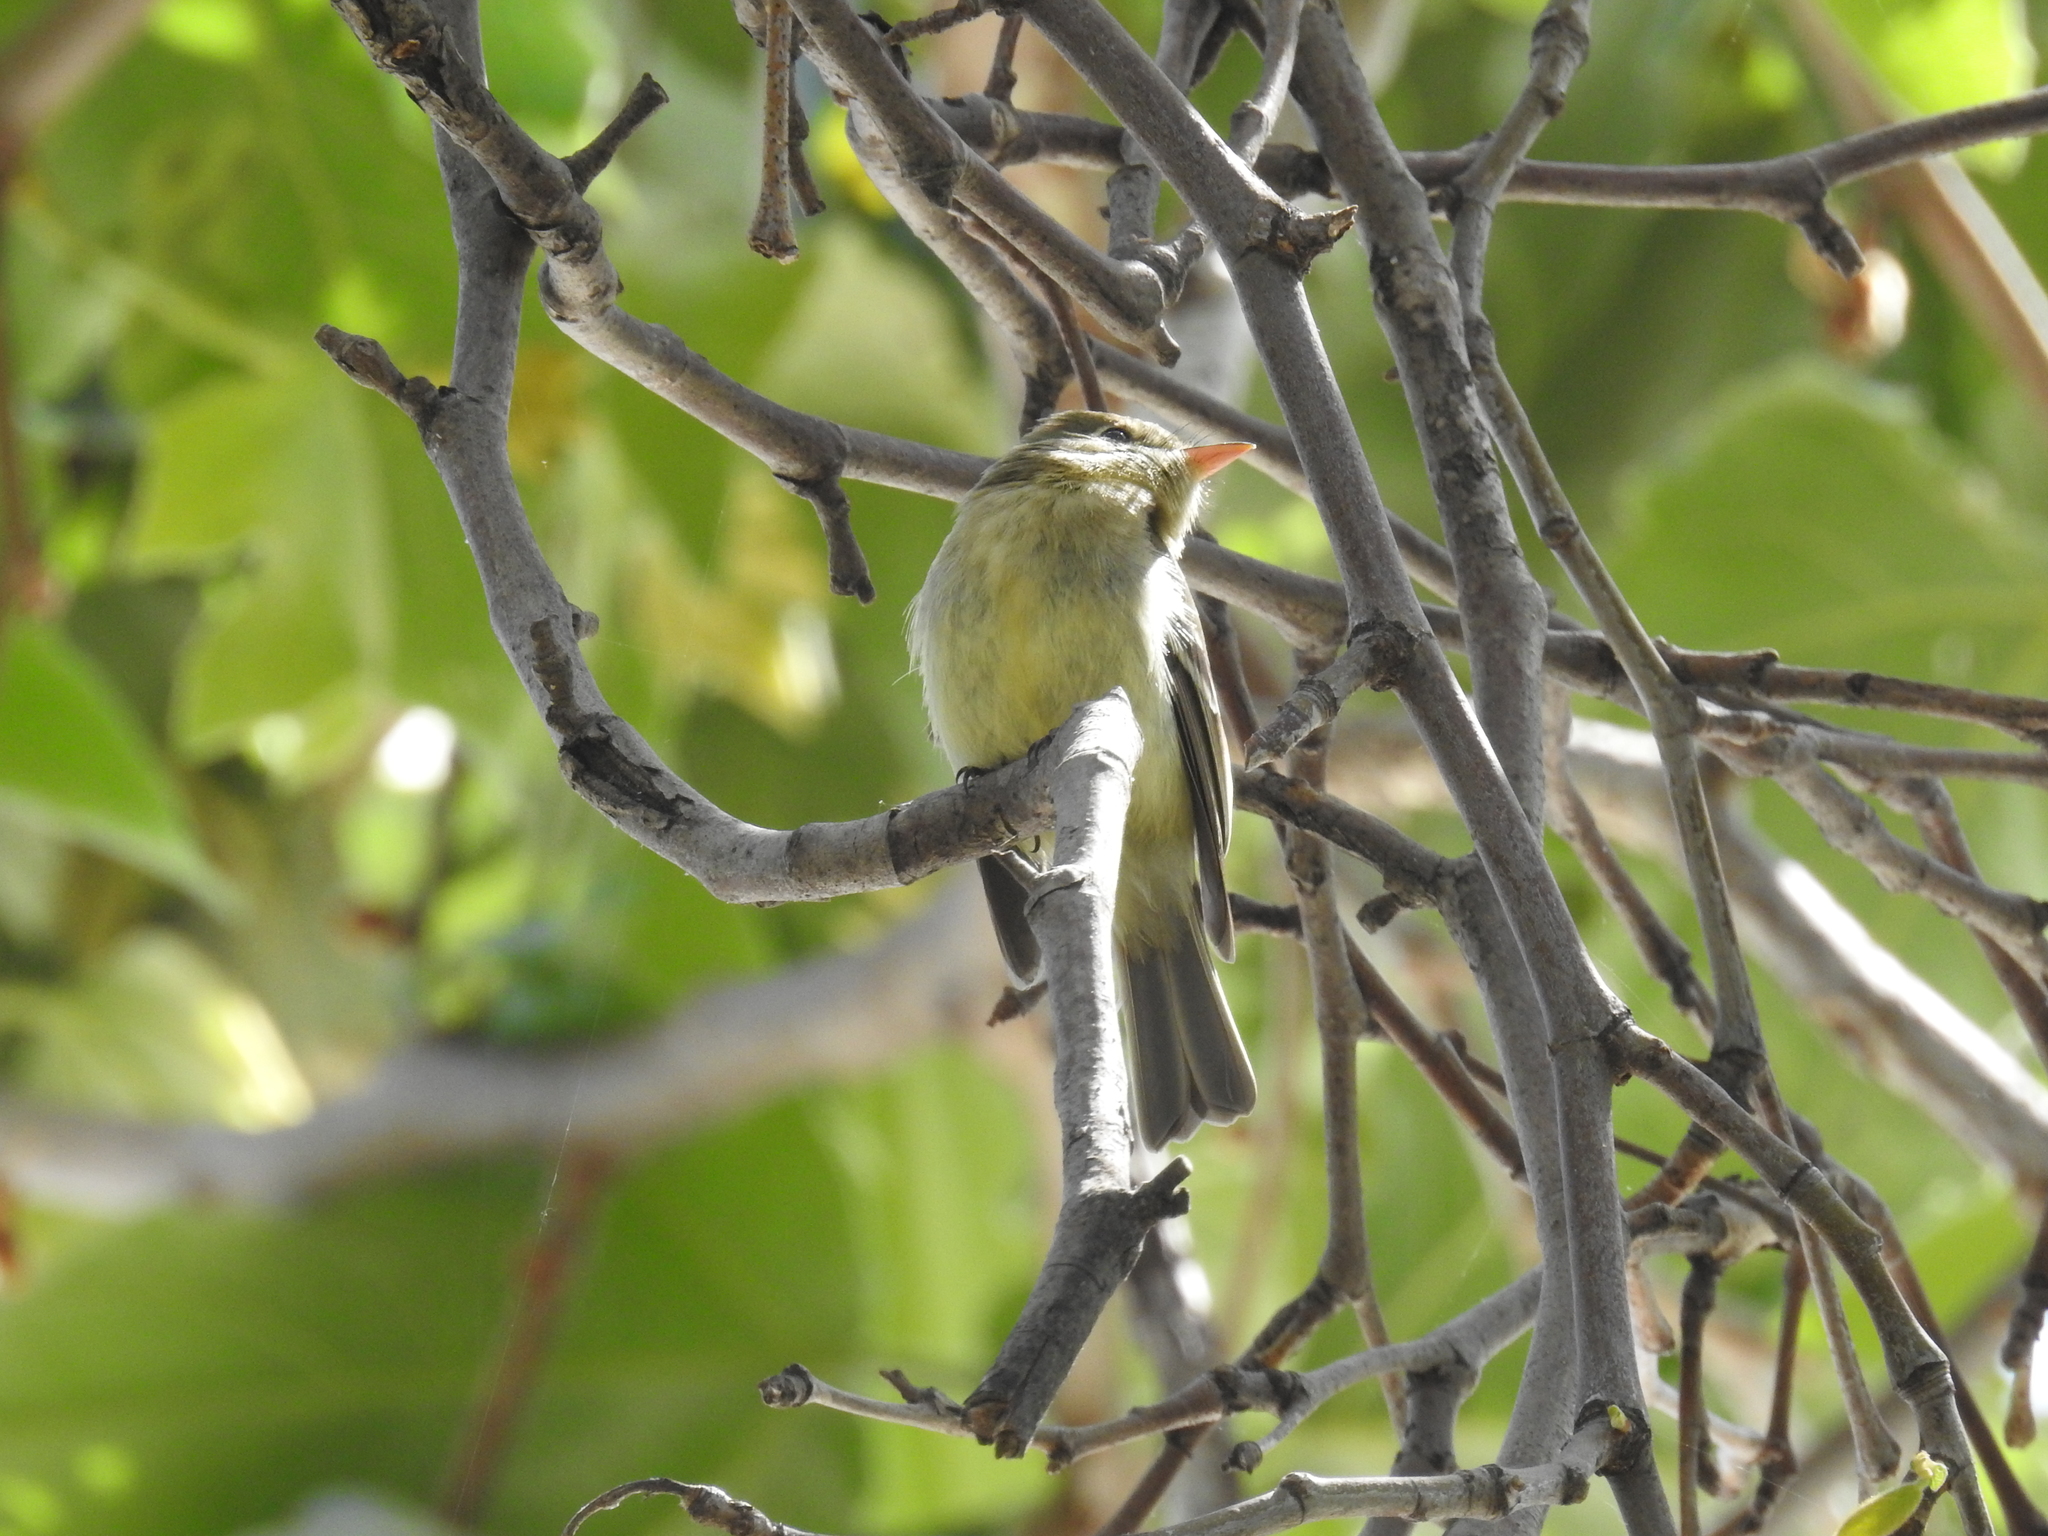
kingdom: Animalia
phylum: Chordata
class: Aves
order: Passeriformes
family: Tyrannidae
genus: Empidonax
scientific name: Empidonax difficilis
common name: Pacific-slope flycatcher
